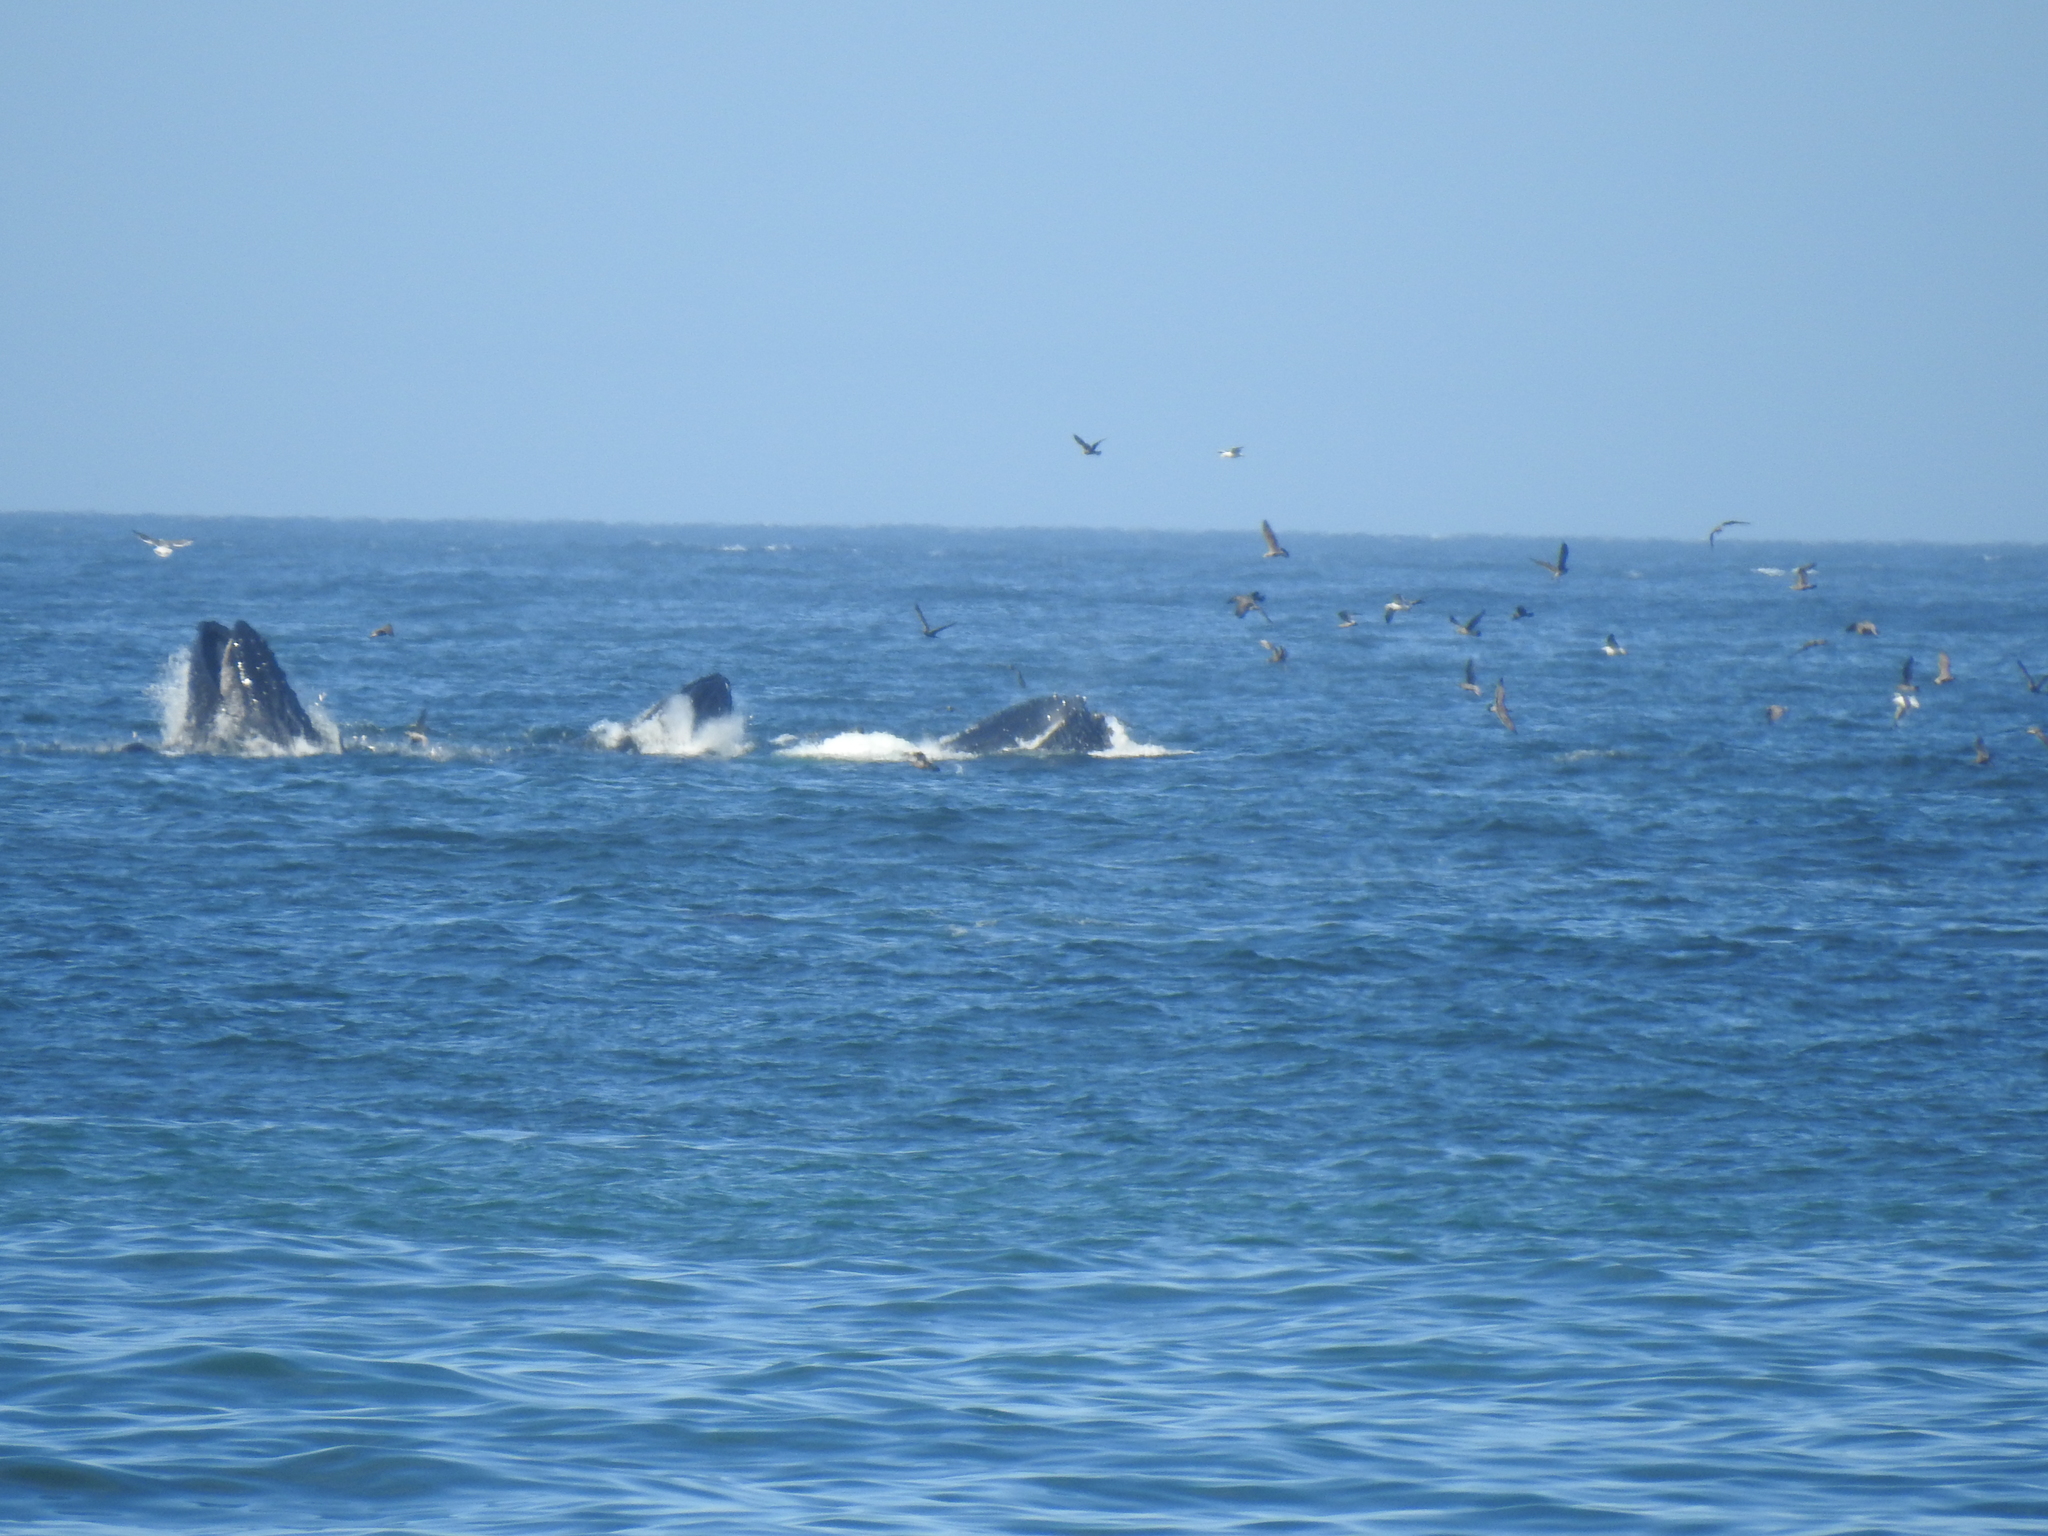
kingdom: Animalia
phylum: Chordata
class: Mammalia
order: Cetacea
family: Balaenopteridae
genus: Megaptera
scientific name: Megaptera novaeangliae
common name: Humpback whale
